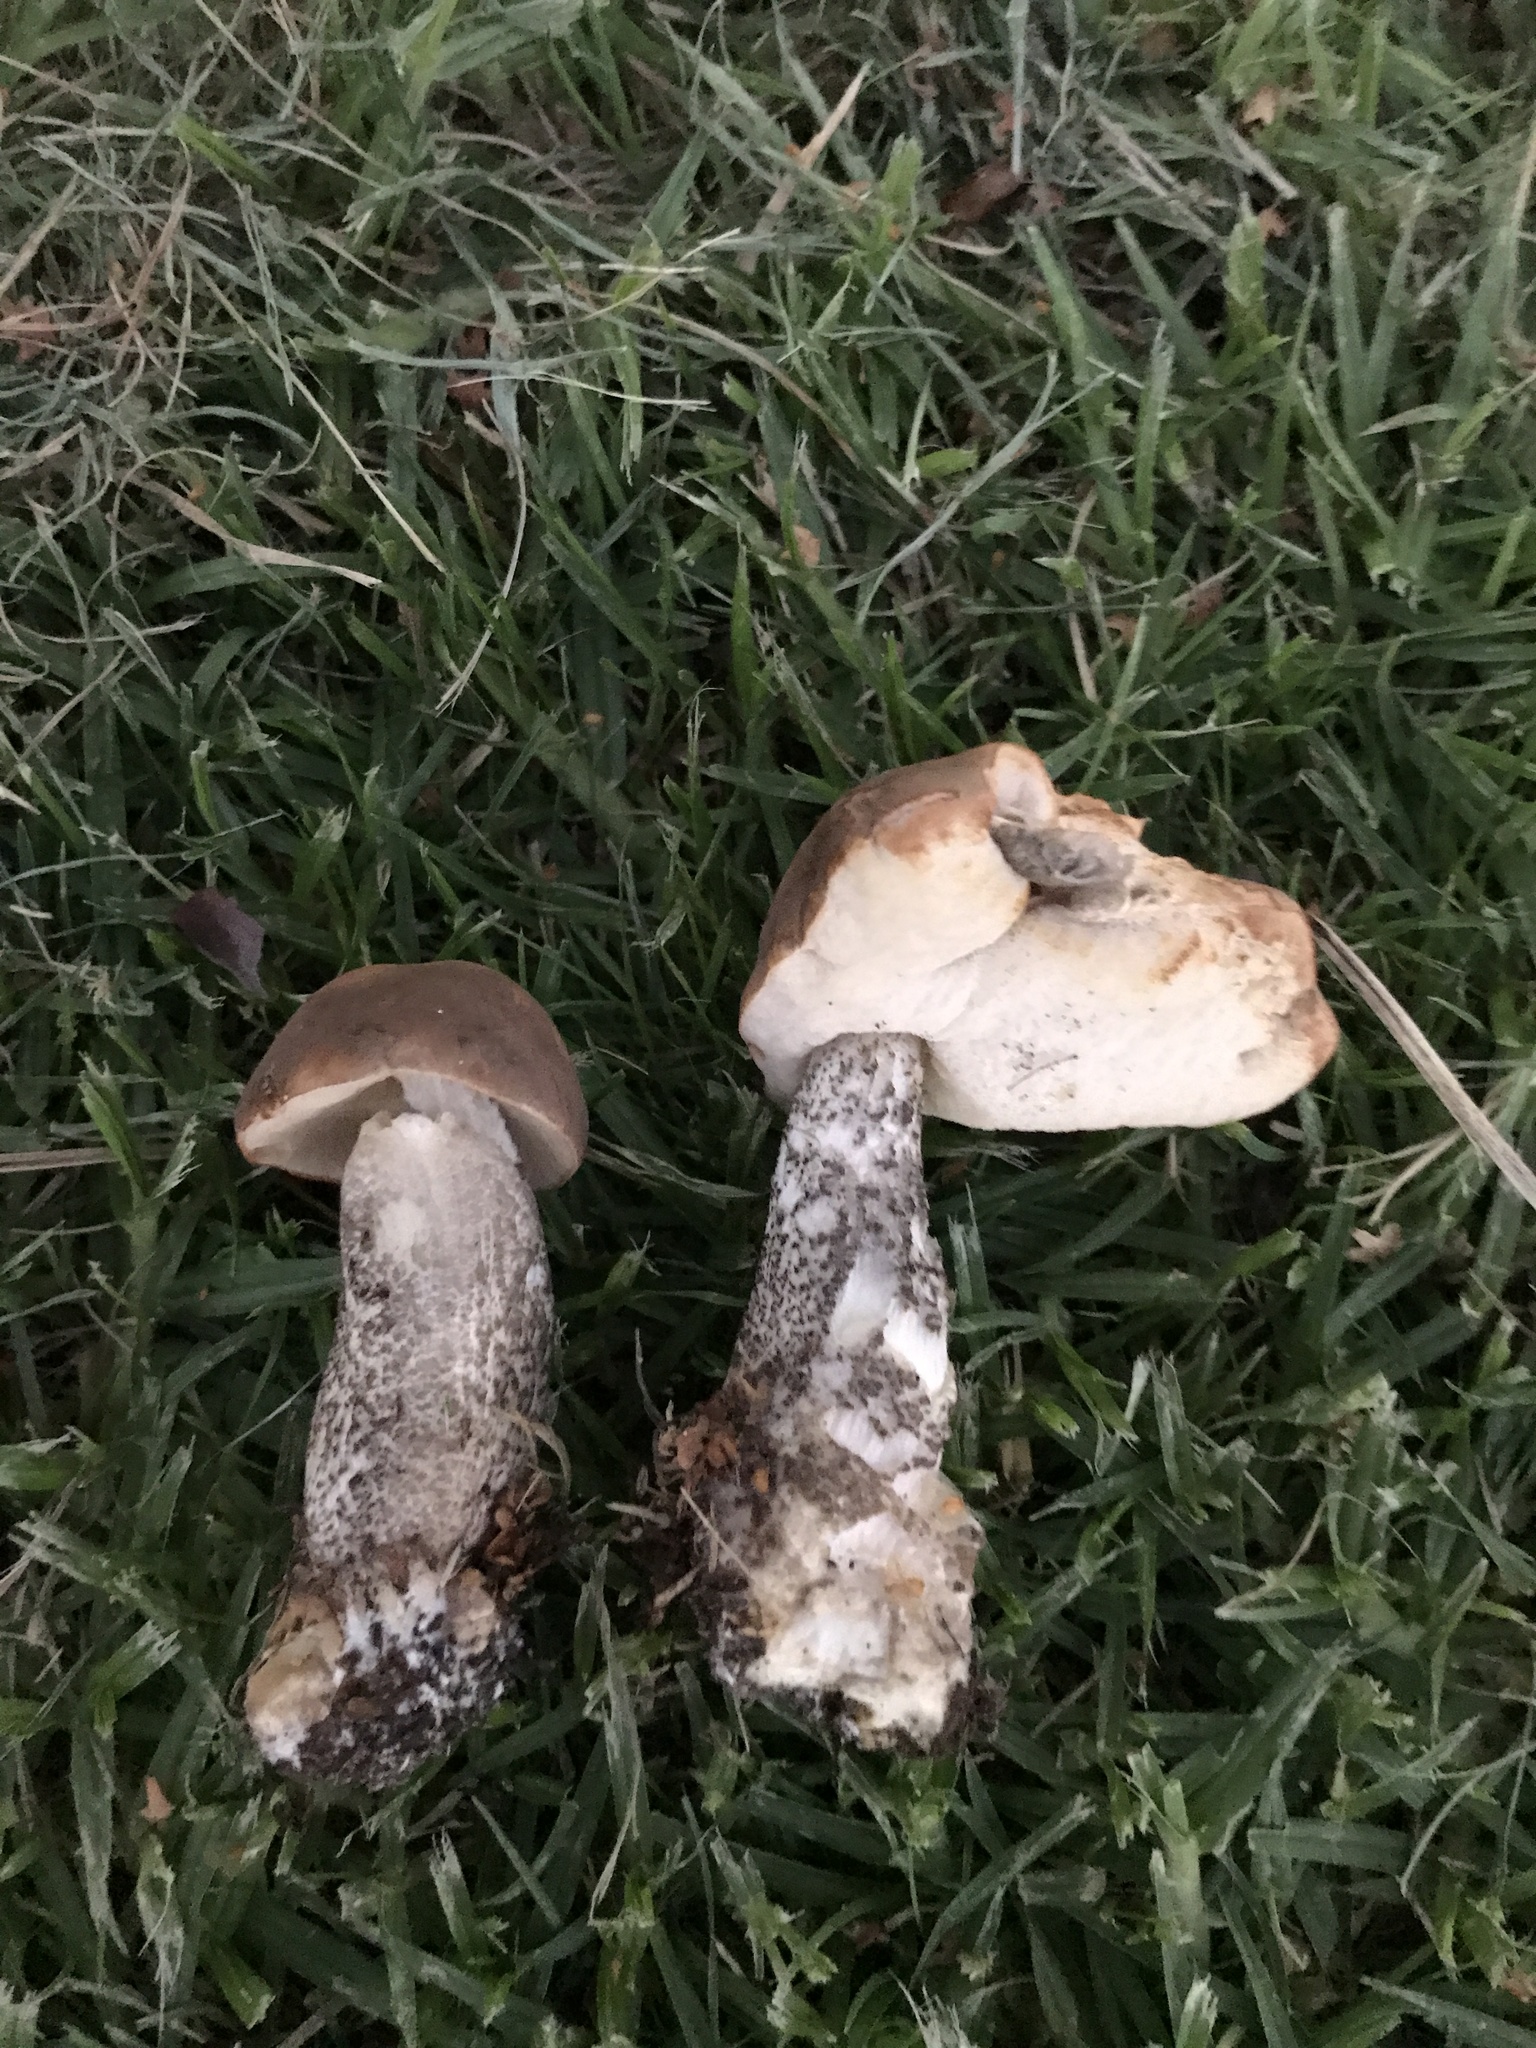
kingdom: Fungi
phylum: Basidiomycota
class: Agaricomycetes
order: Boletales
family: Boletaceae
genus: Leccinum
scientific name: Leccinum scabrum
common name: Blushing bolete
